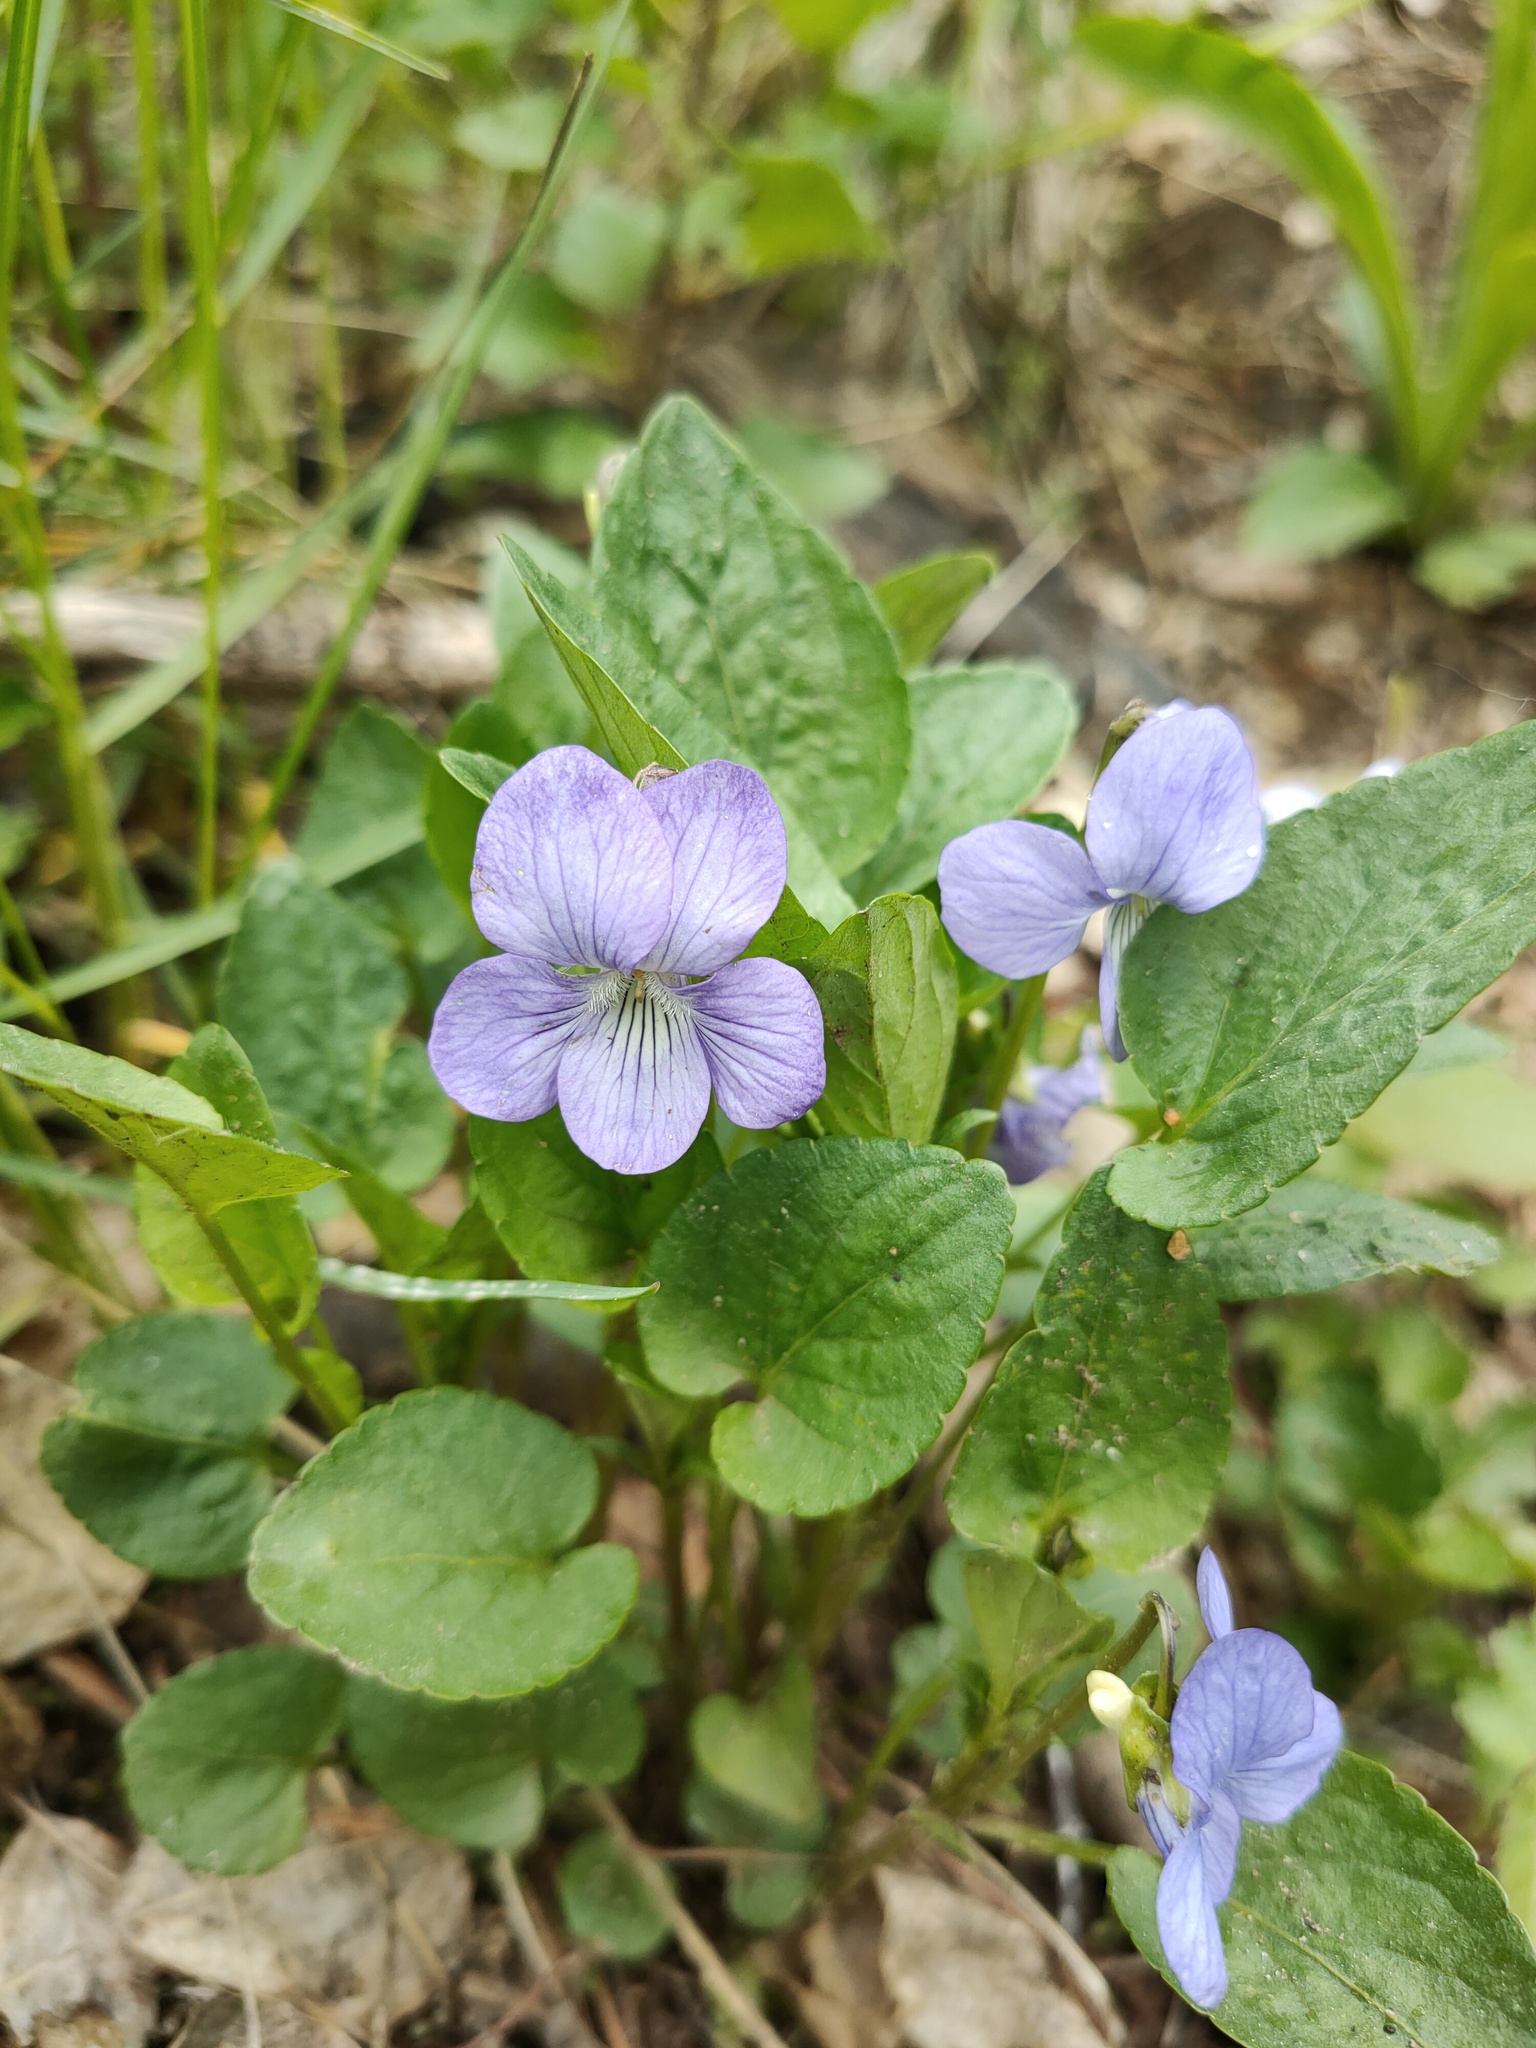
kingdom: Plantae
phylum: Tracheophyta
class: Magnoliopsida
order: Malpighiales
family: Violaceae
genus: Viola
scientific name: Viola canina
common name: Heath dog-violet
